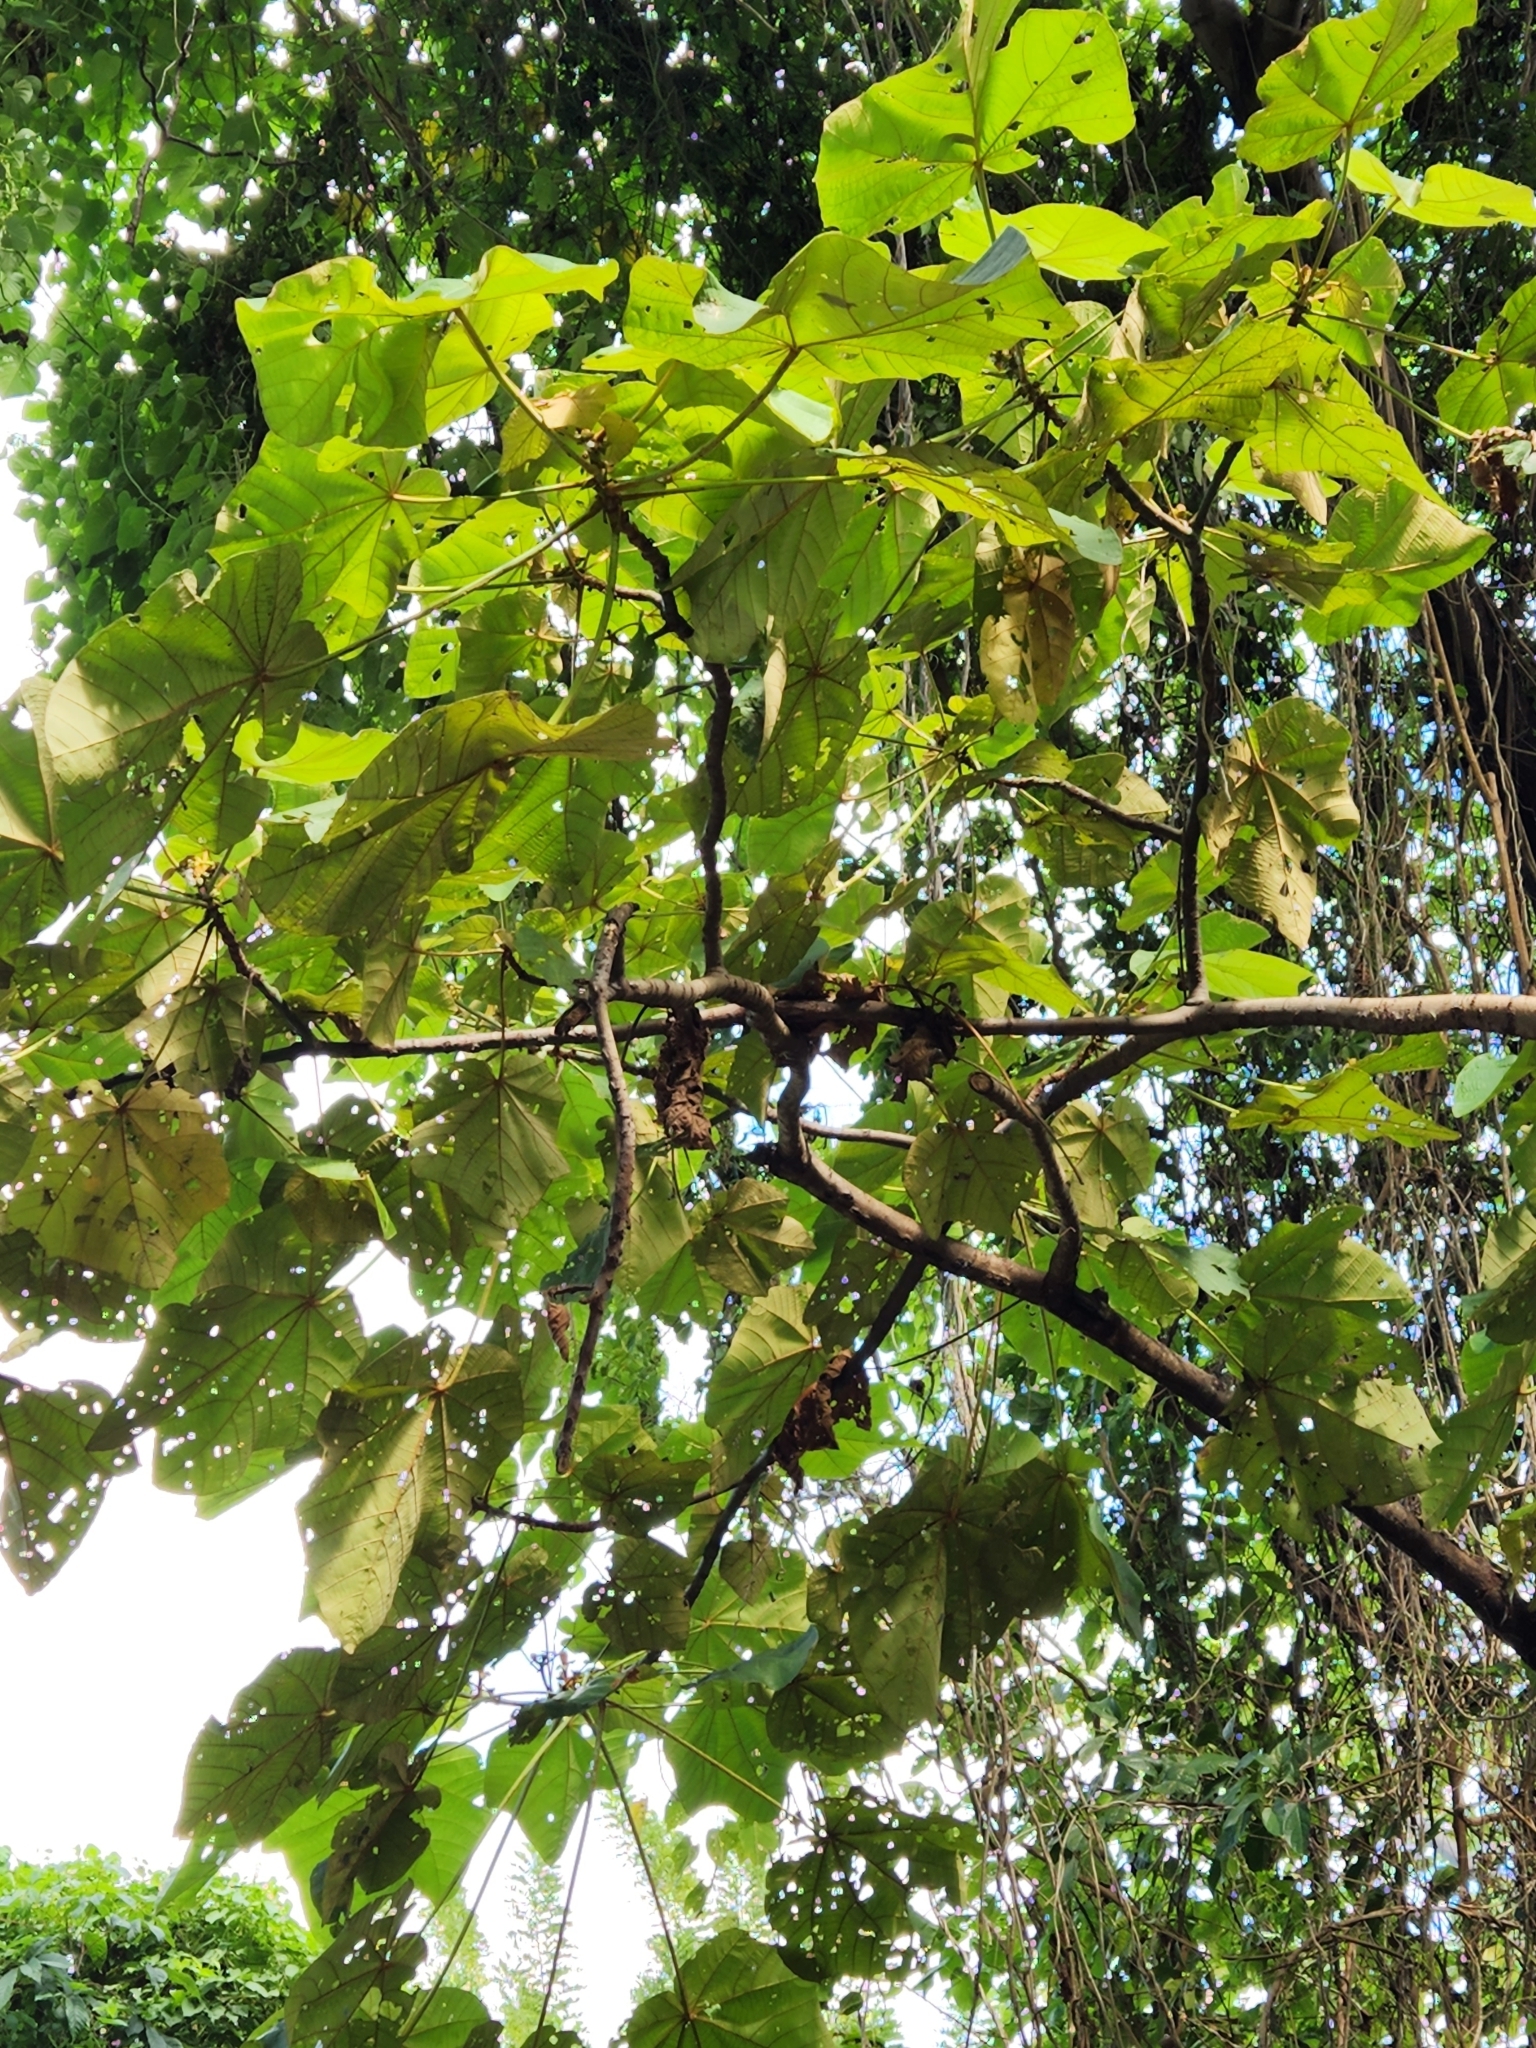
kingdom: Plantae
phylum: Tracheophyta
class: Magnoliopsida
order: Malvales
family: Malvaceae
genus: Ochroma
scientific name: Ochroma pyramidale
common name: Balsa
